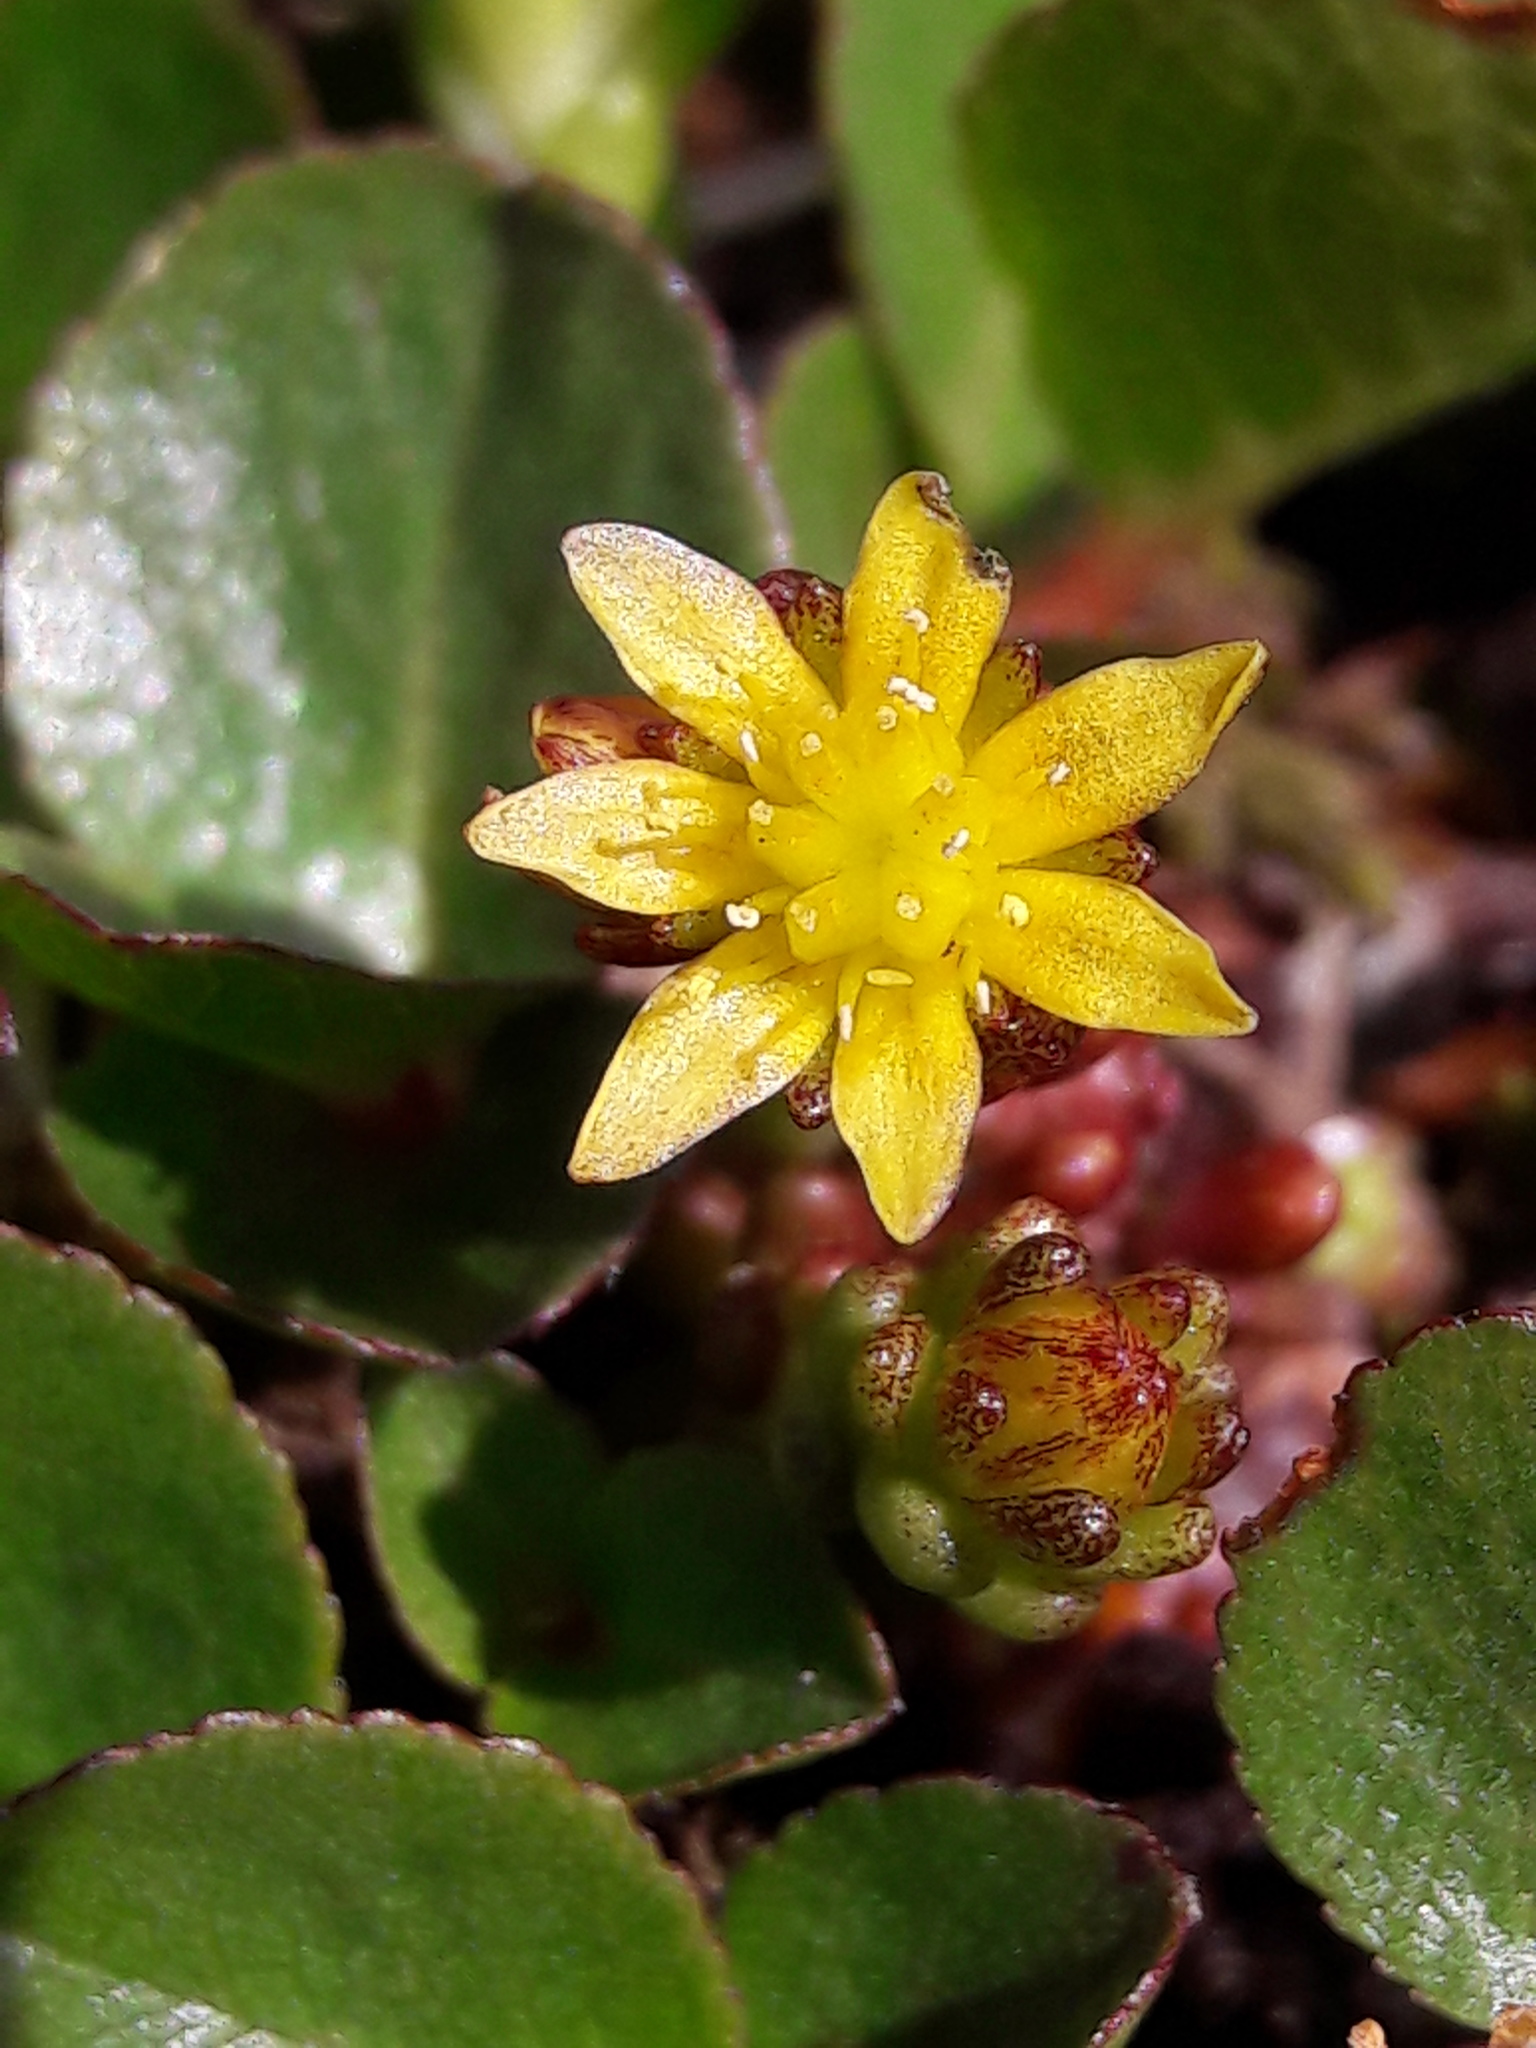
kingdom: Plantae
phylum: Tracheophyta
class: Magnoliopsida
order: Saxifragales
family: Crassulaceae
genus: Sedum
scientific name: Sedum alpestre
